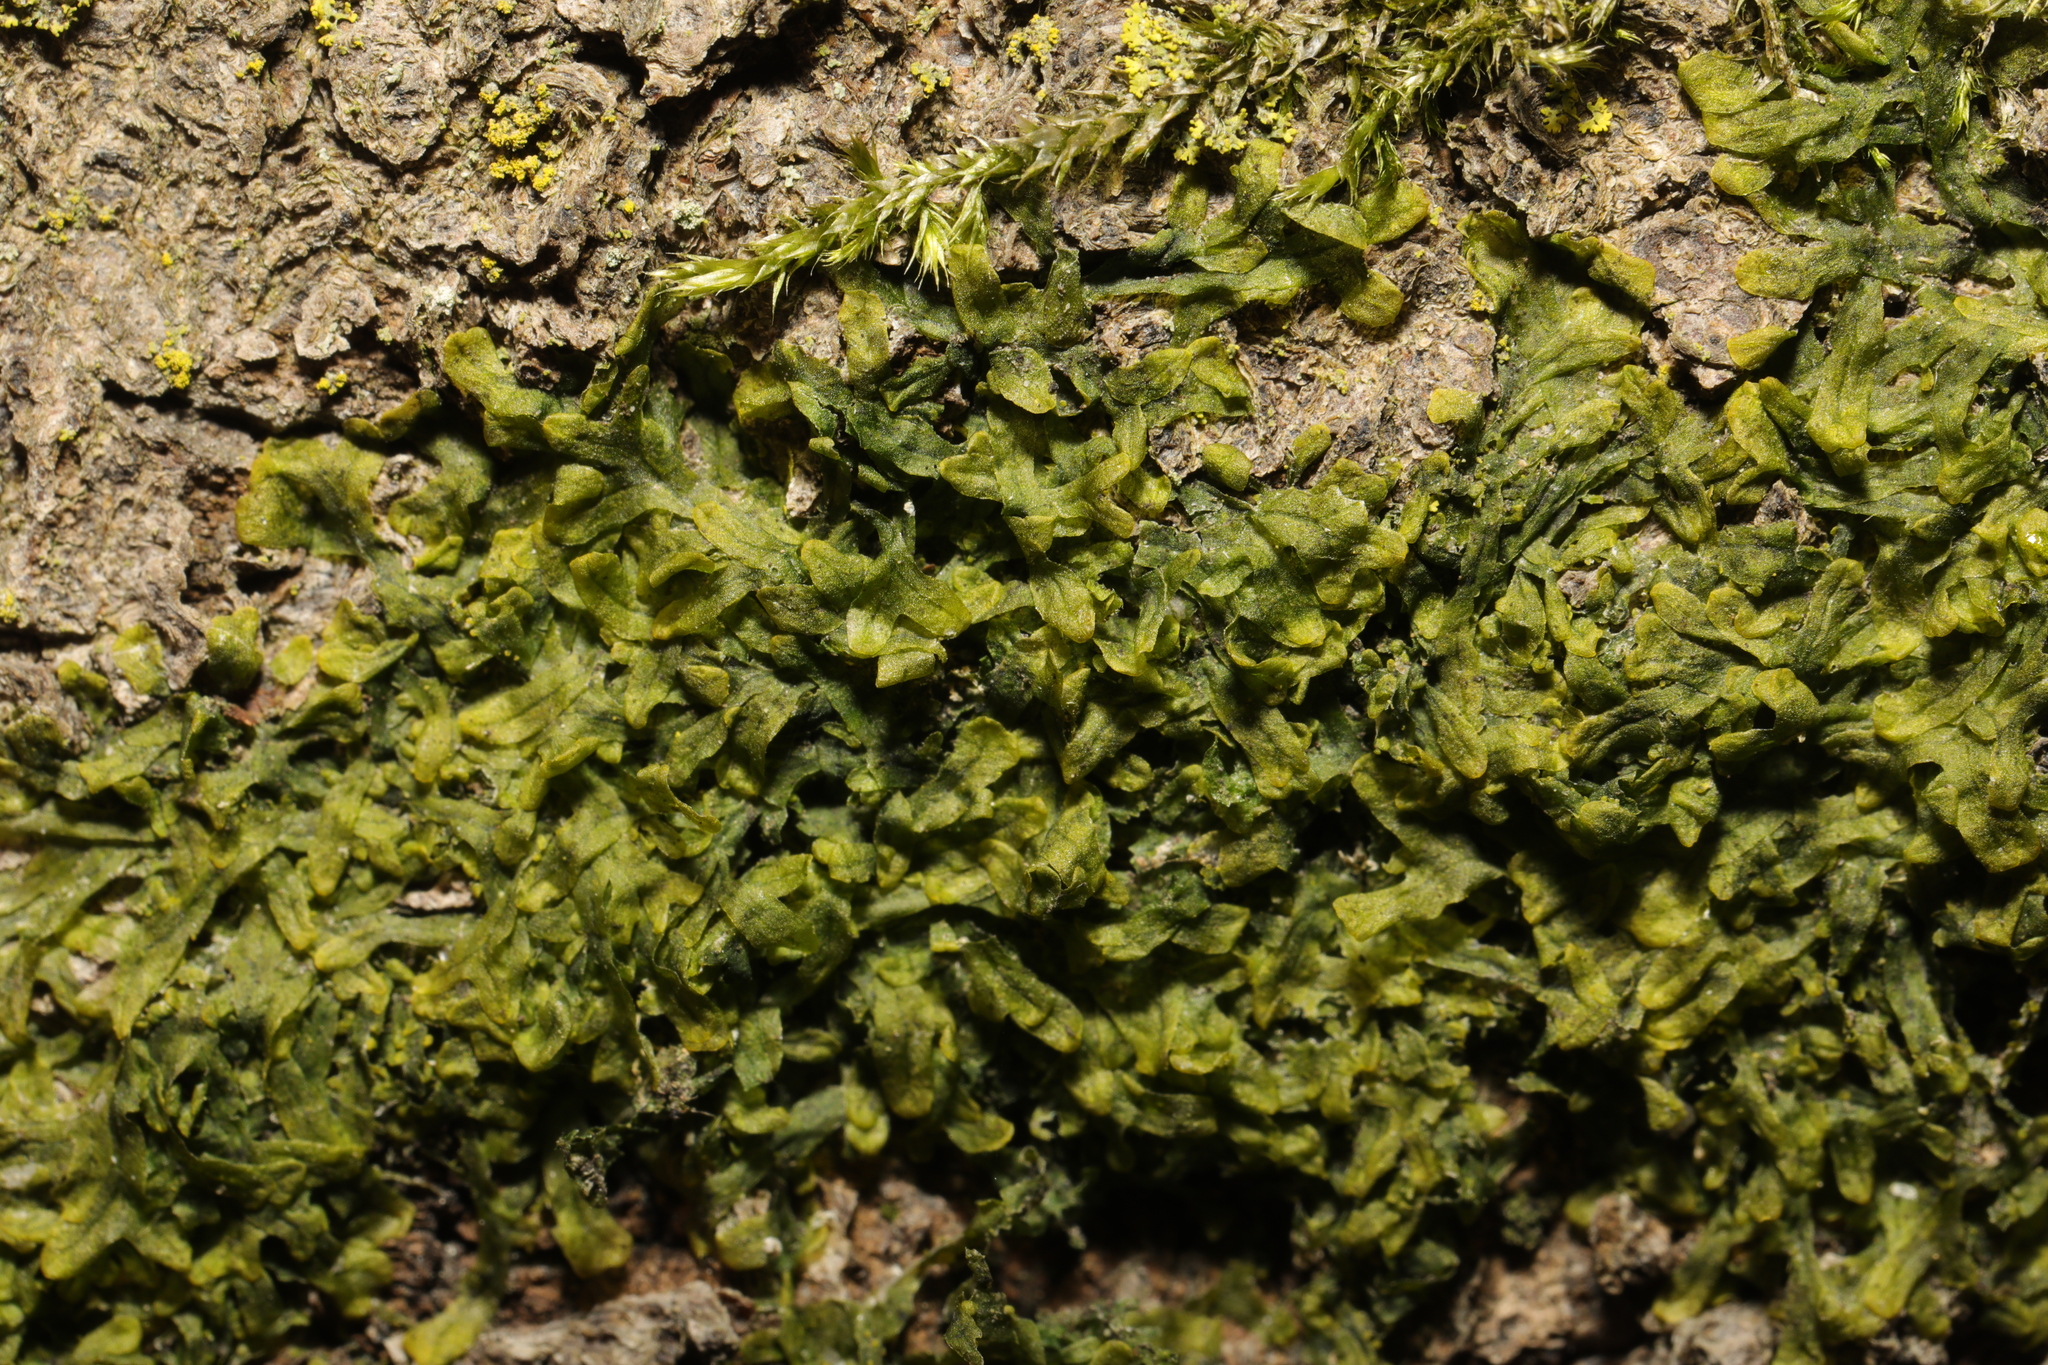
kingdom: Plantae
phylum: Marchantiophyta
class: Jungermanniopsida
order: Metzgeriales
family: Metzgeriaceae
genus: Metzgeria
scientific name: Metzgeria furcata
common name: Forked veilwort
